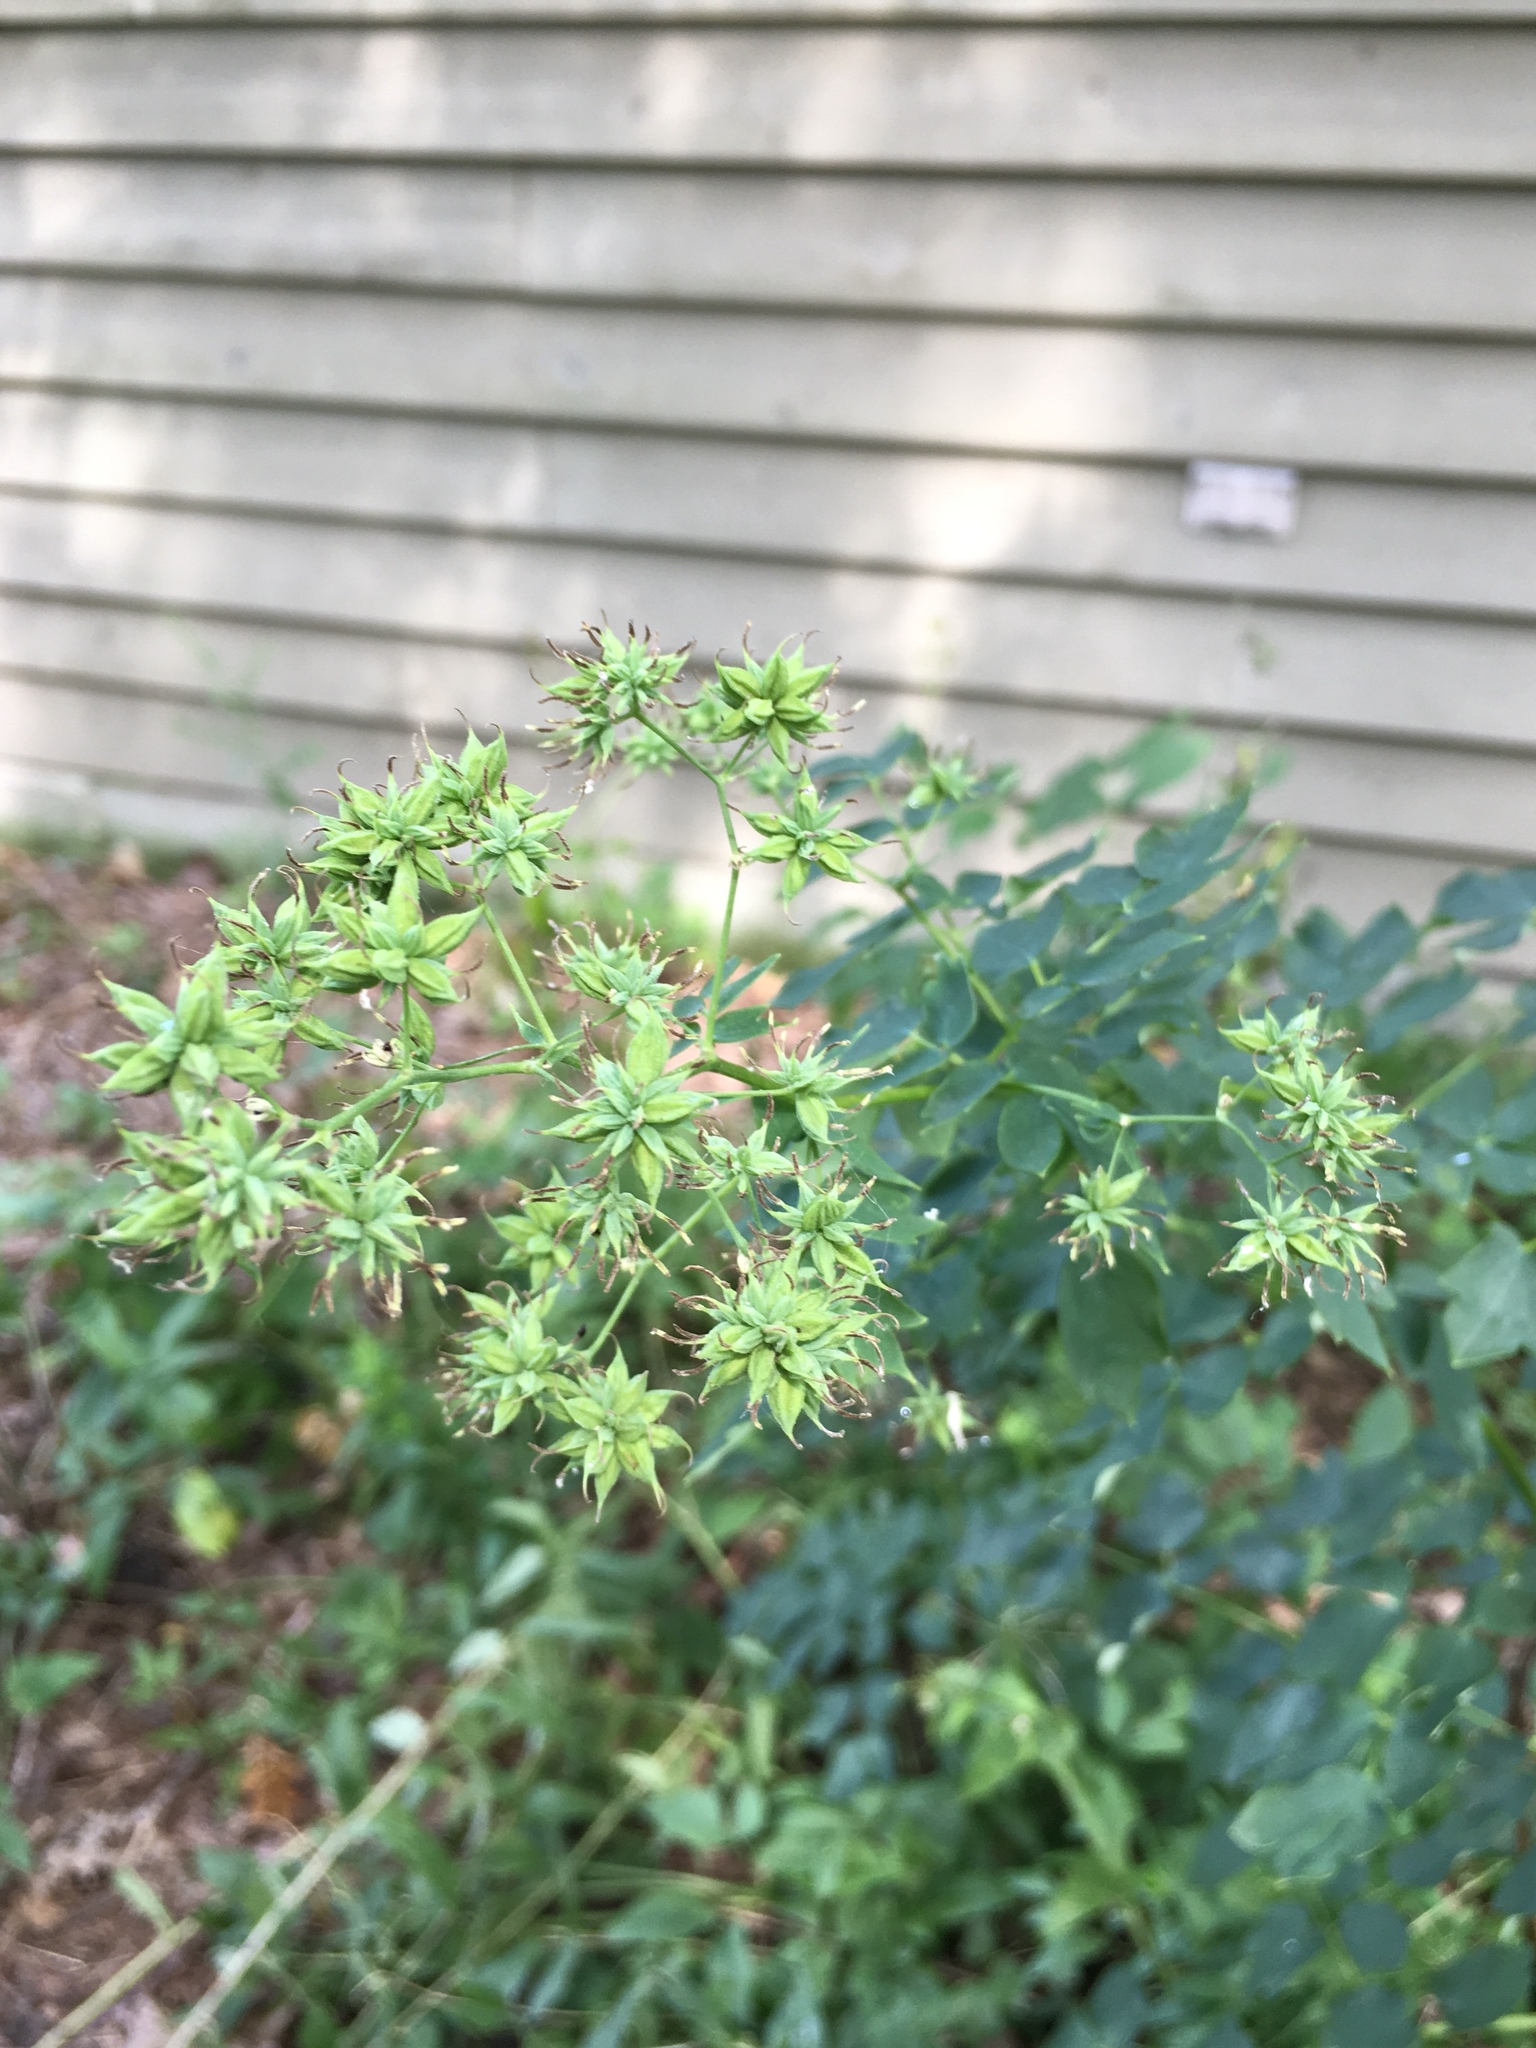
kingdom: Plantae
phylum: Tracheophyta
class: Magnoliopsida
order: Ranunculales
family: Ranunculaceae
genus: Thalictrum
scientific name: Thalictrum dasycarpum
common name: Purple meadow-rue
